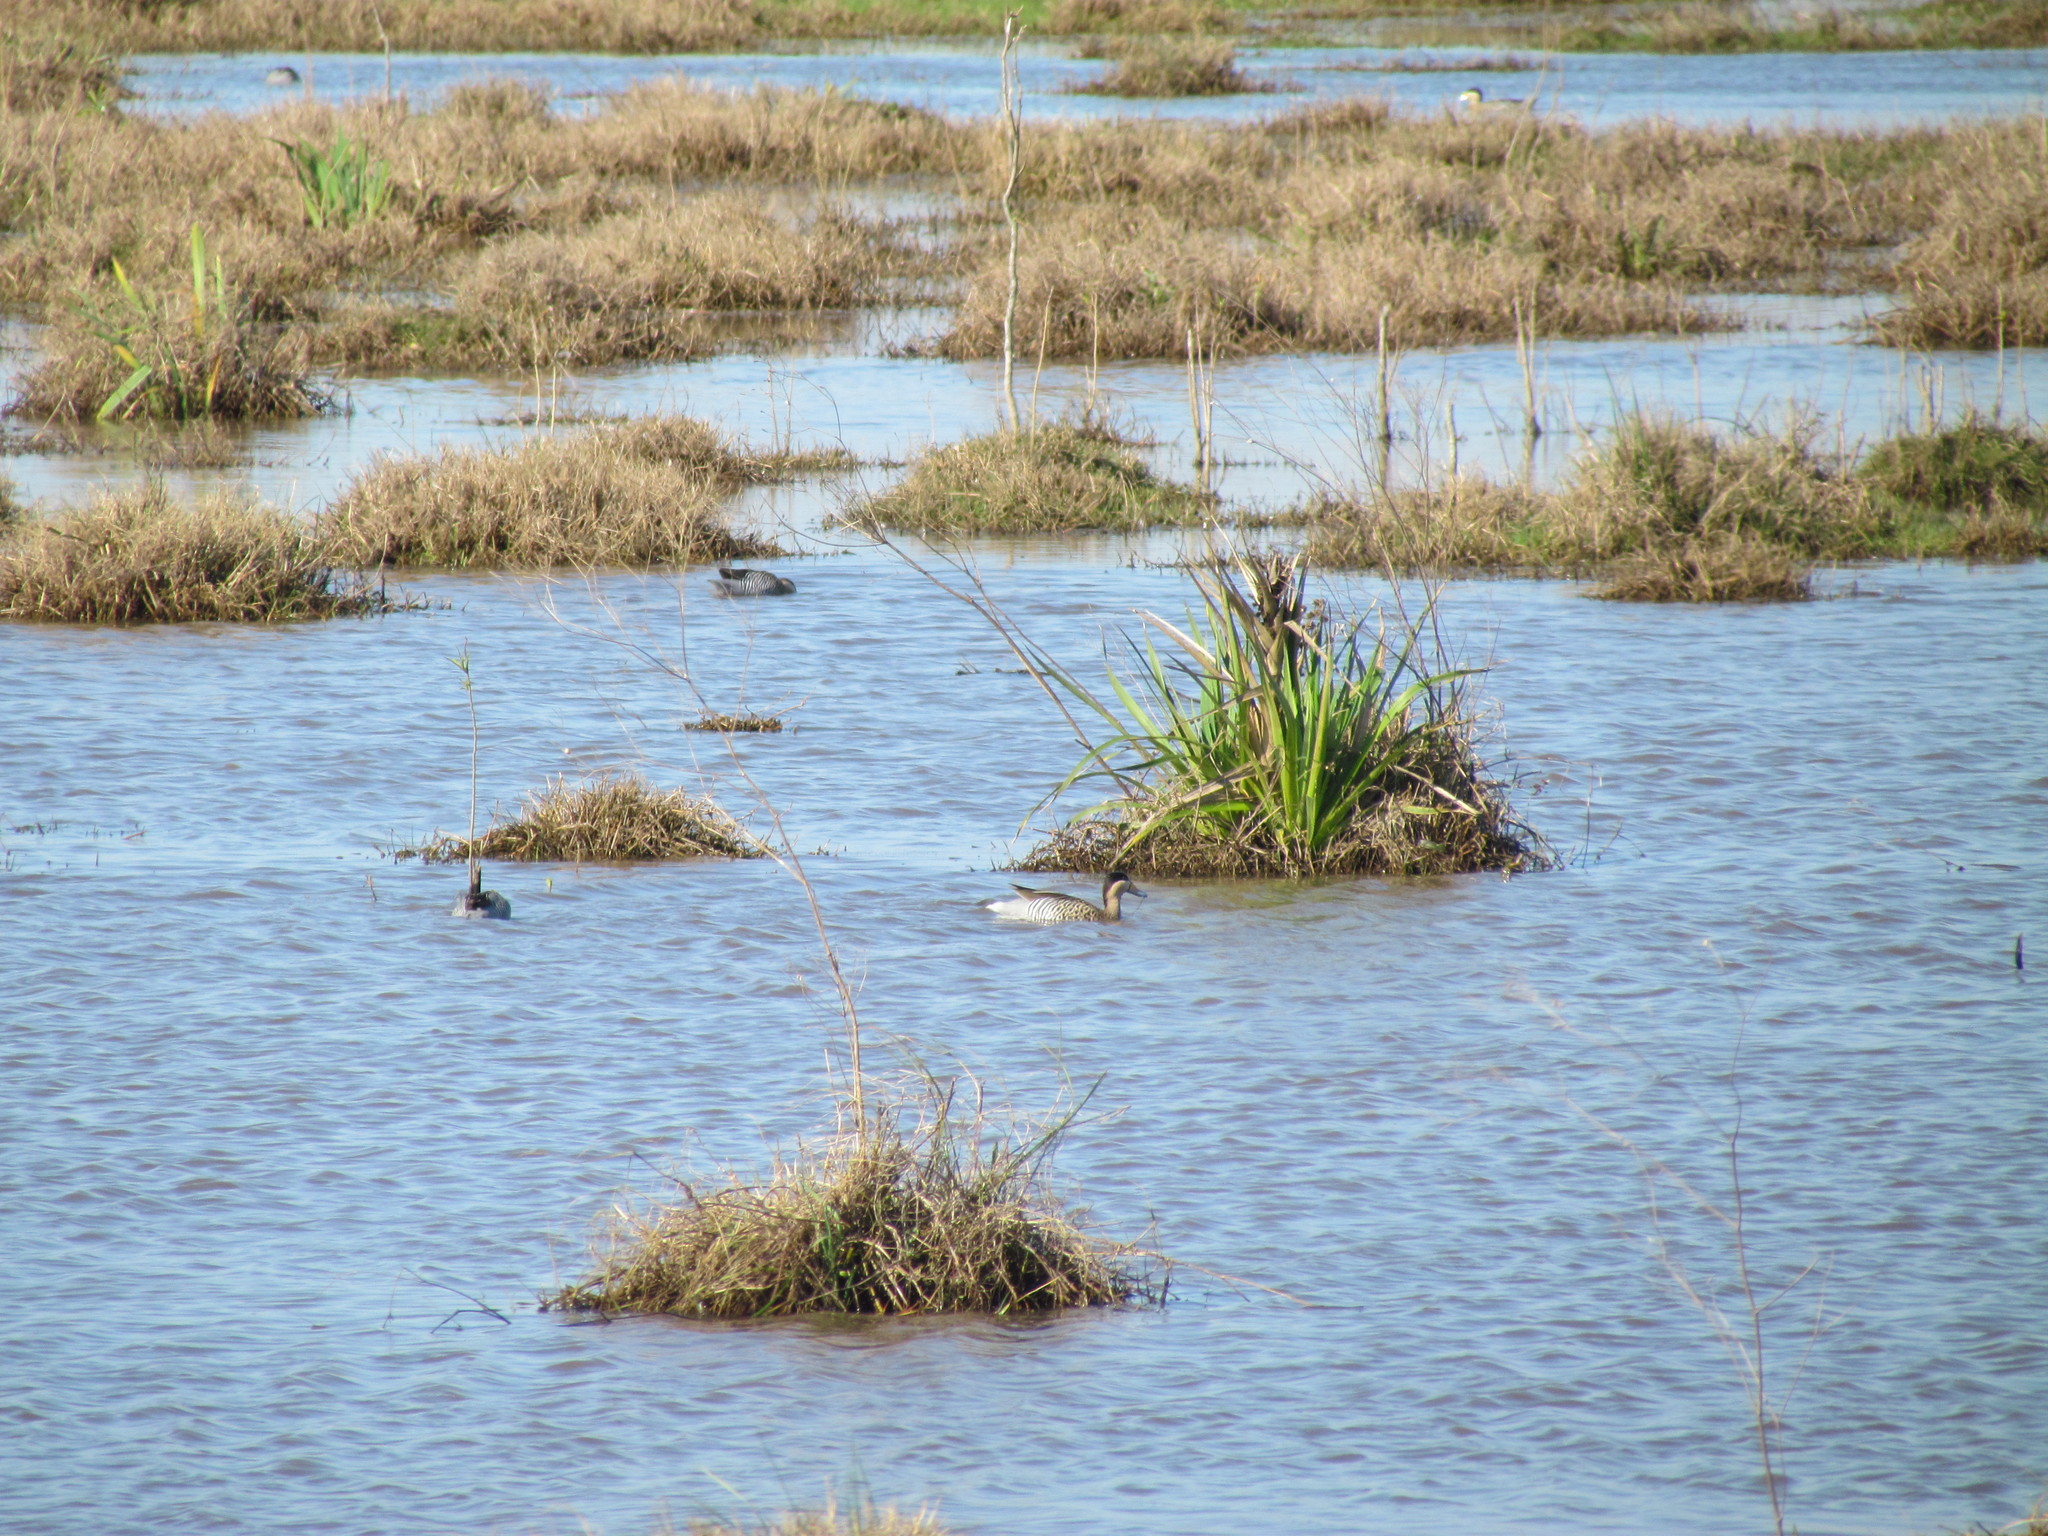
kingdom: Animalia
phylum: Chordata
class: Aves
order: Anseriformes
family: Anatidae
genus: Spatula
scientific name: Spatula versicolor
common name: Silver teal
